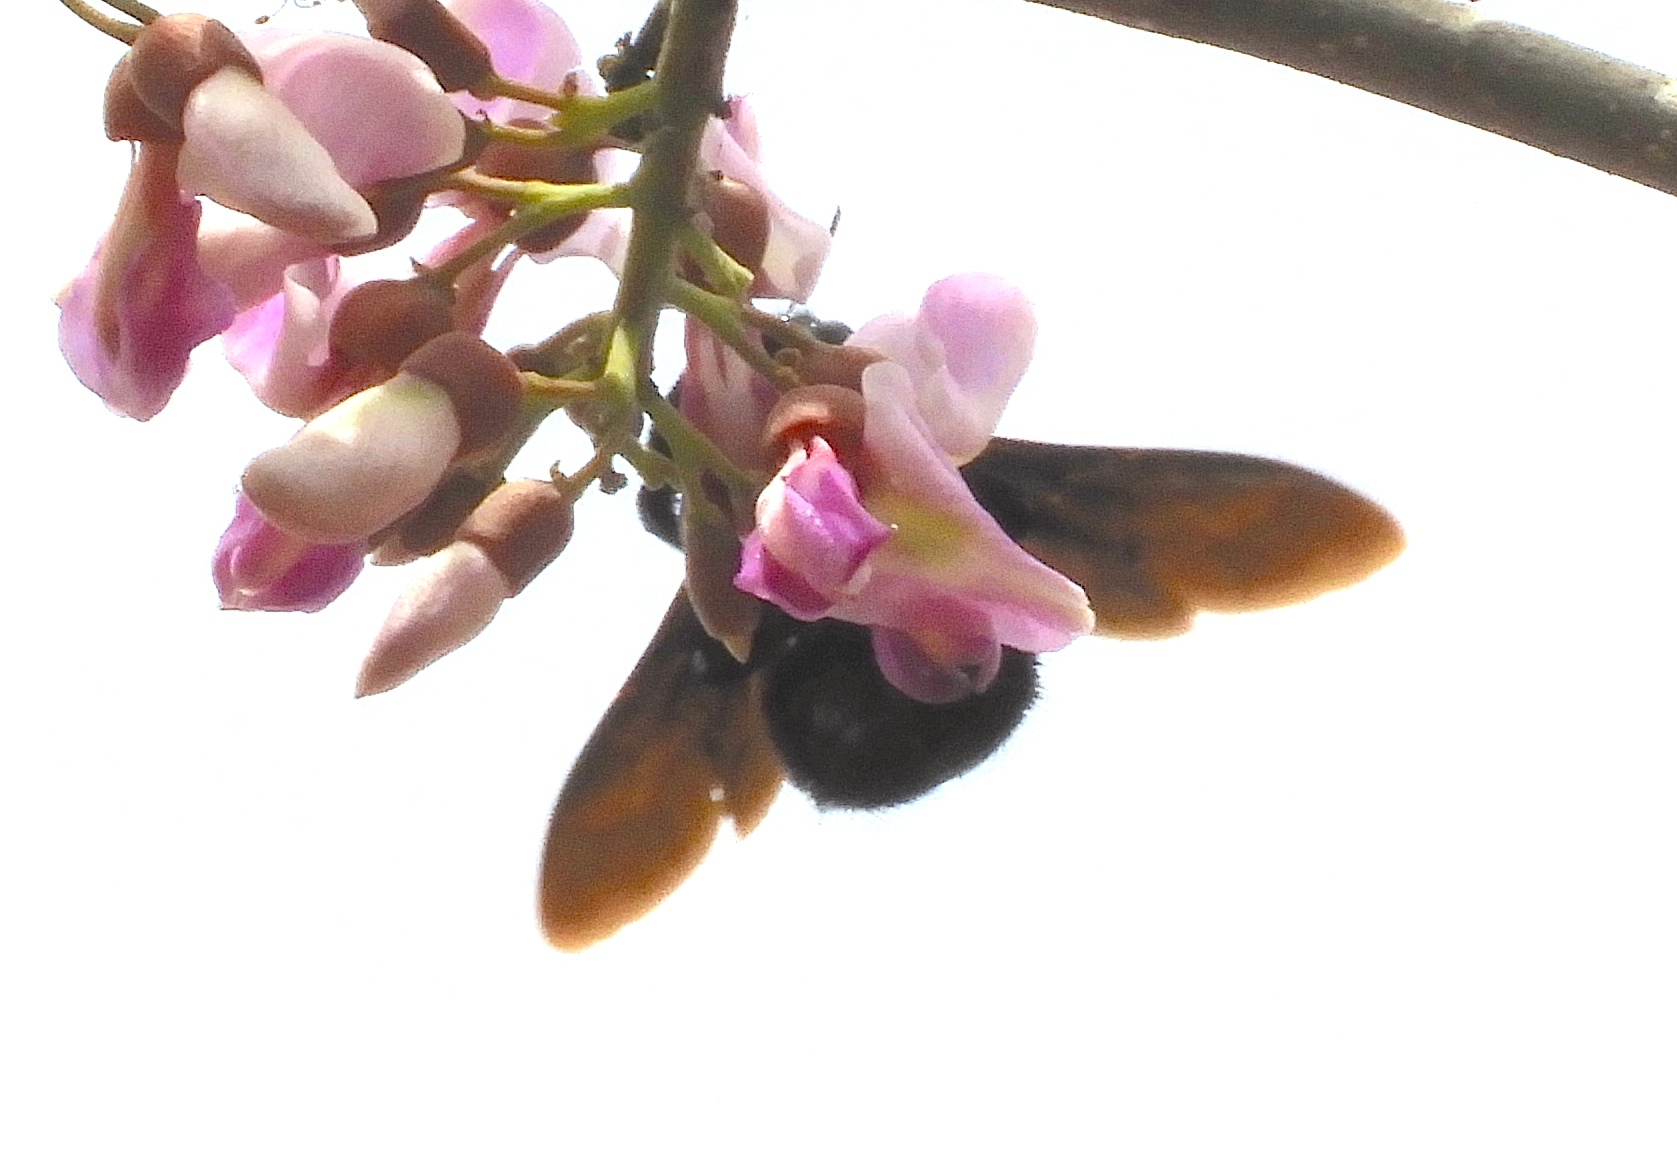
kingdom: Animalia
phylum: Arthropoda
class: Insecta
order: Hymenoptera
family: Apidae
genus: Xylocopa
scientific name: Xylocopa
